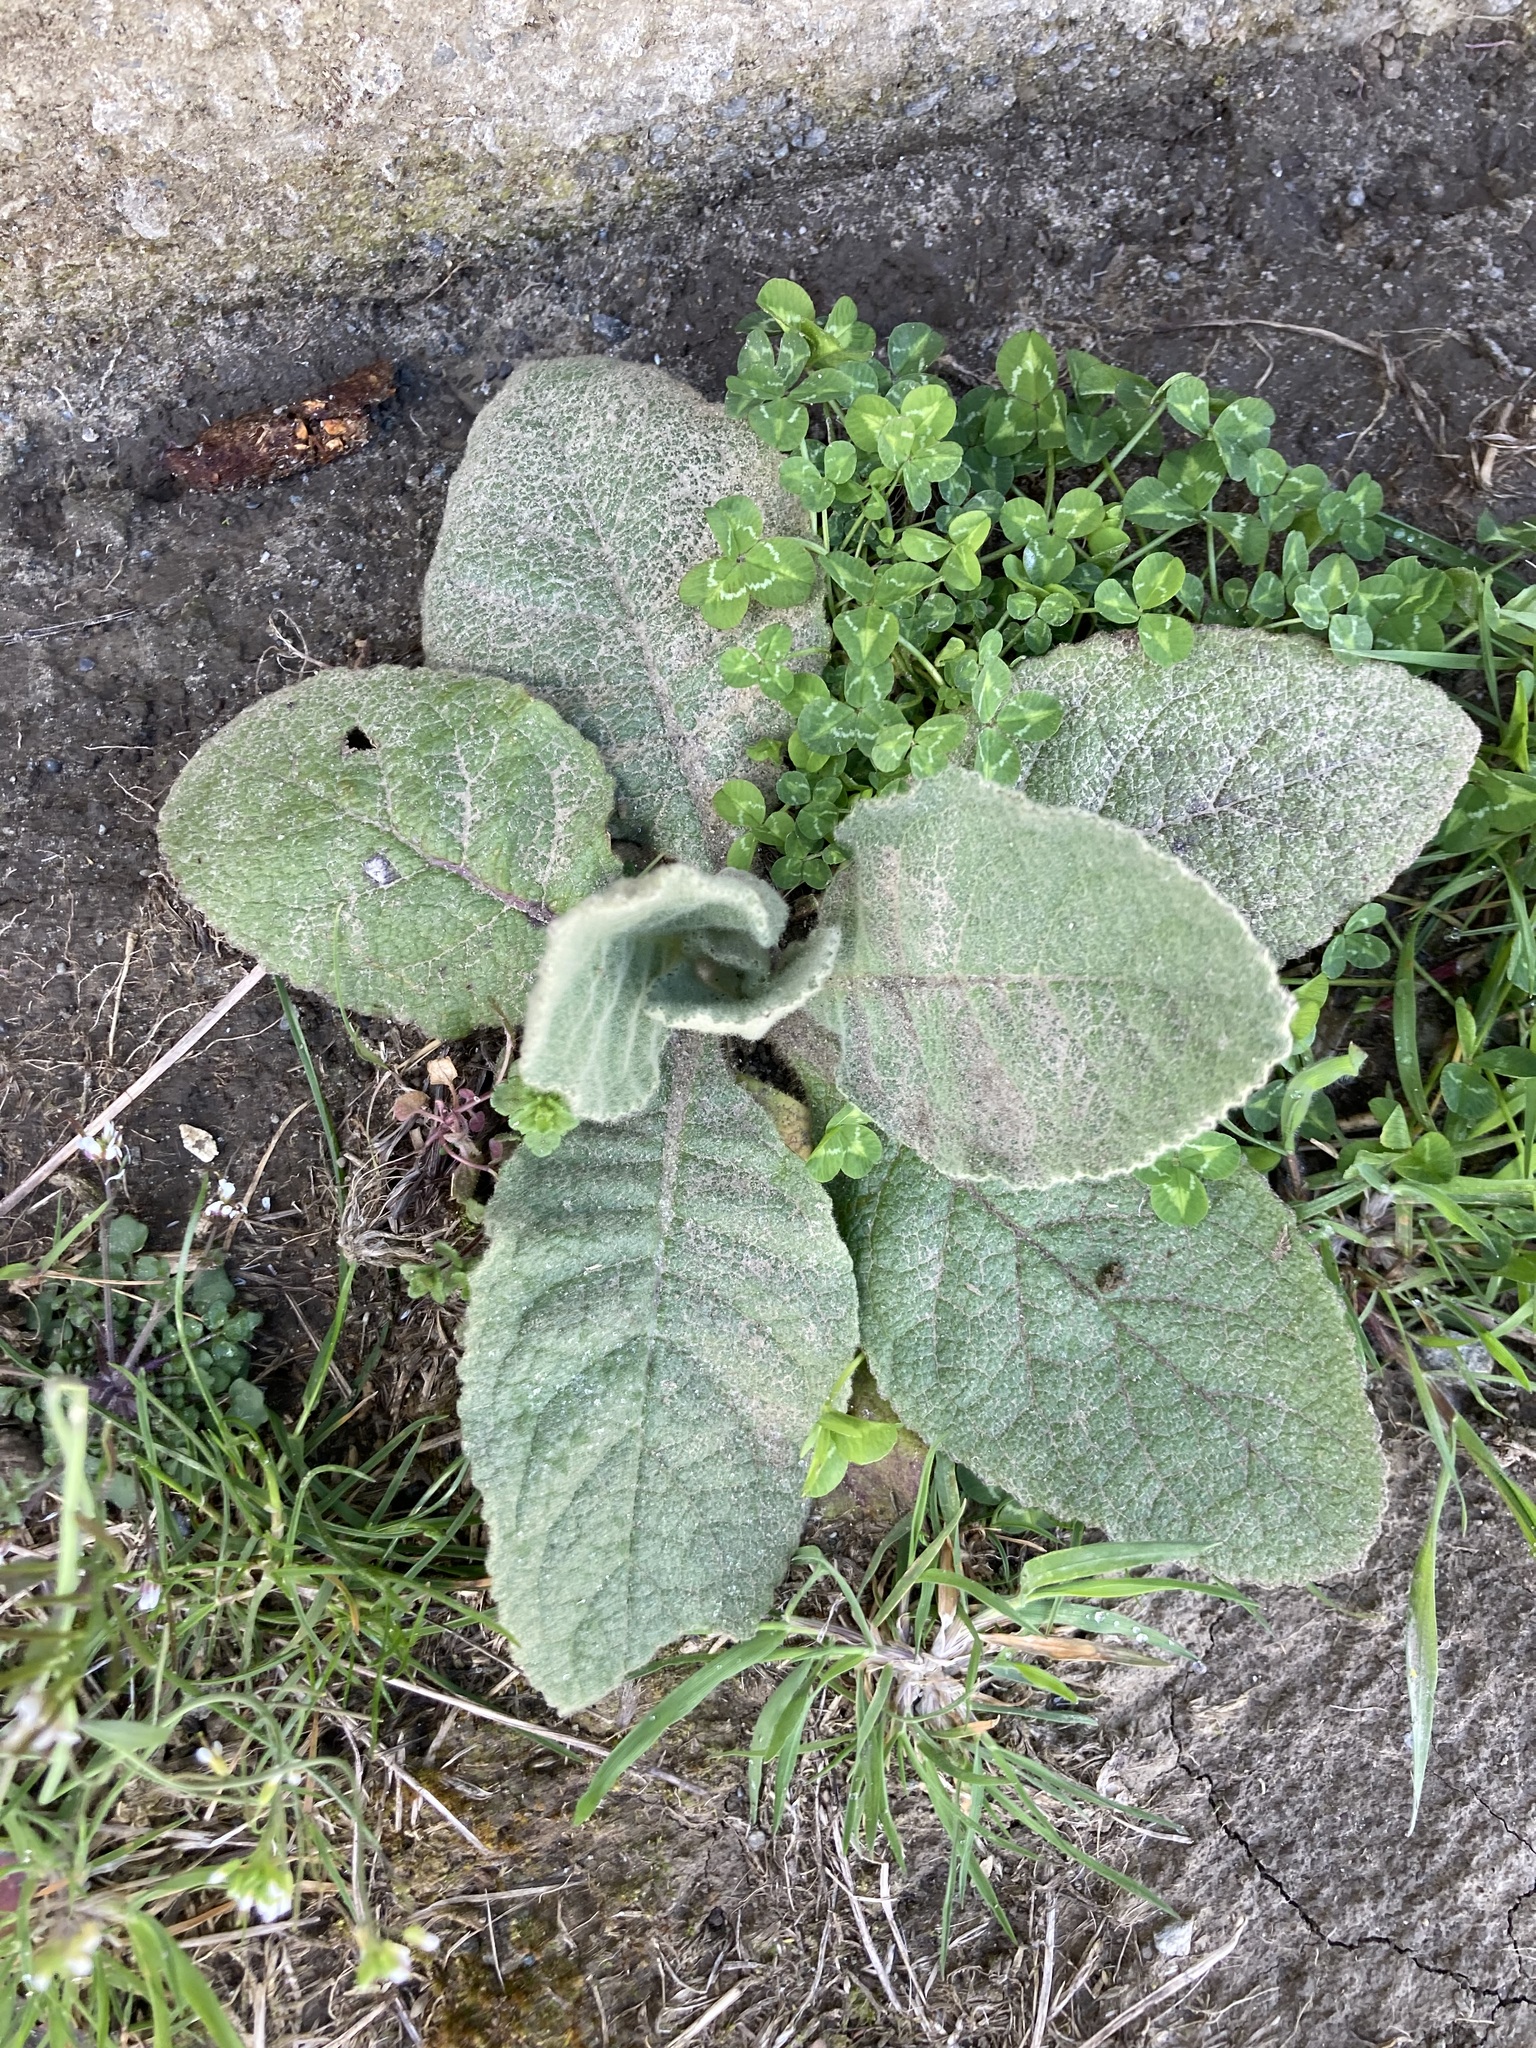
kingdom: Plantae
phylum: Tracheophyta
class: Magnoliopsida
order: Lamiales
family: Scrophulariaceae
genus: Verbascum
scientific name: Verbascum thapsus
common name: Common mullein
